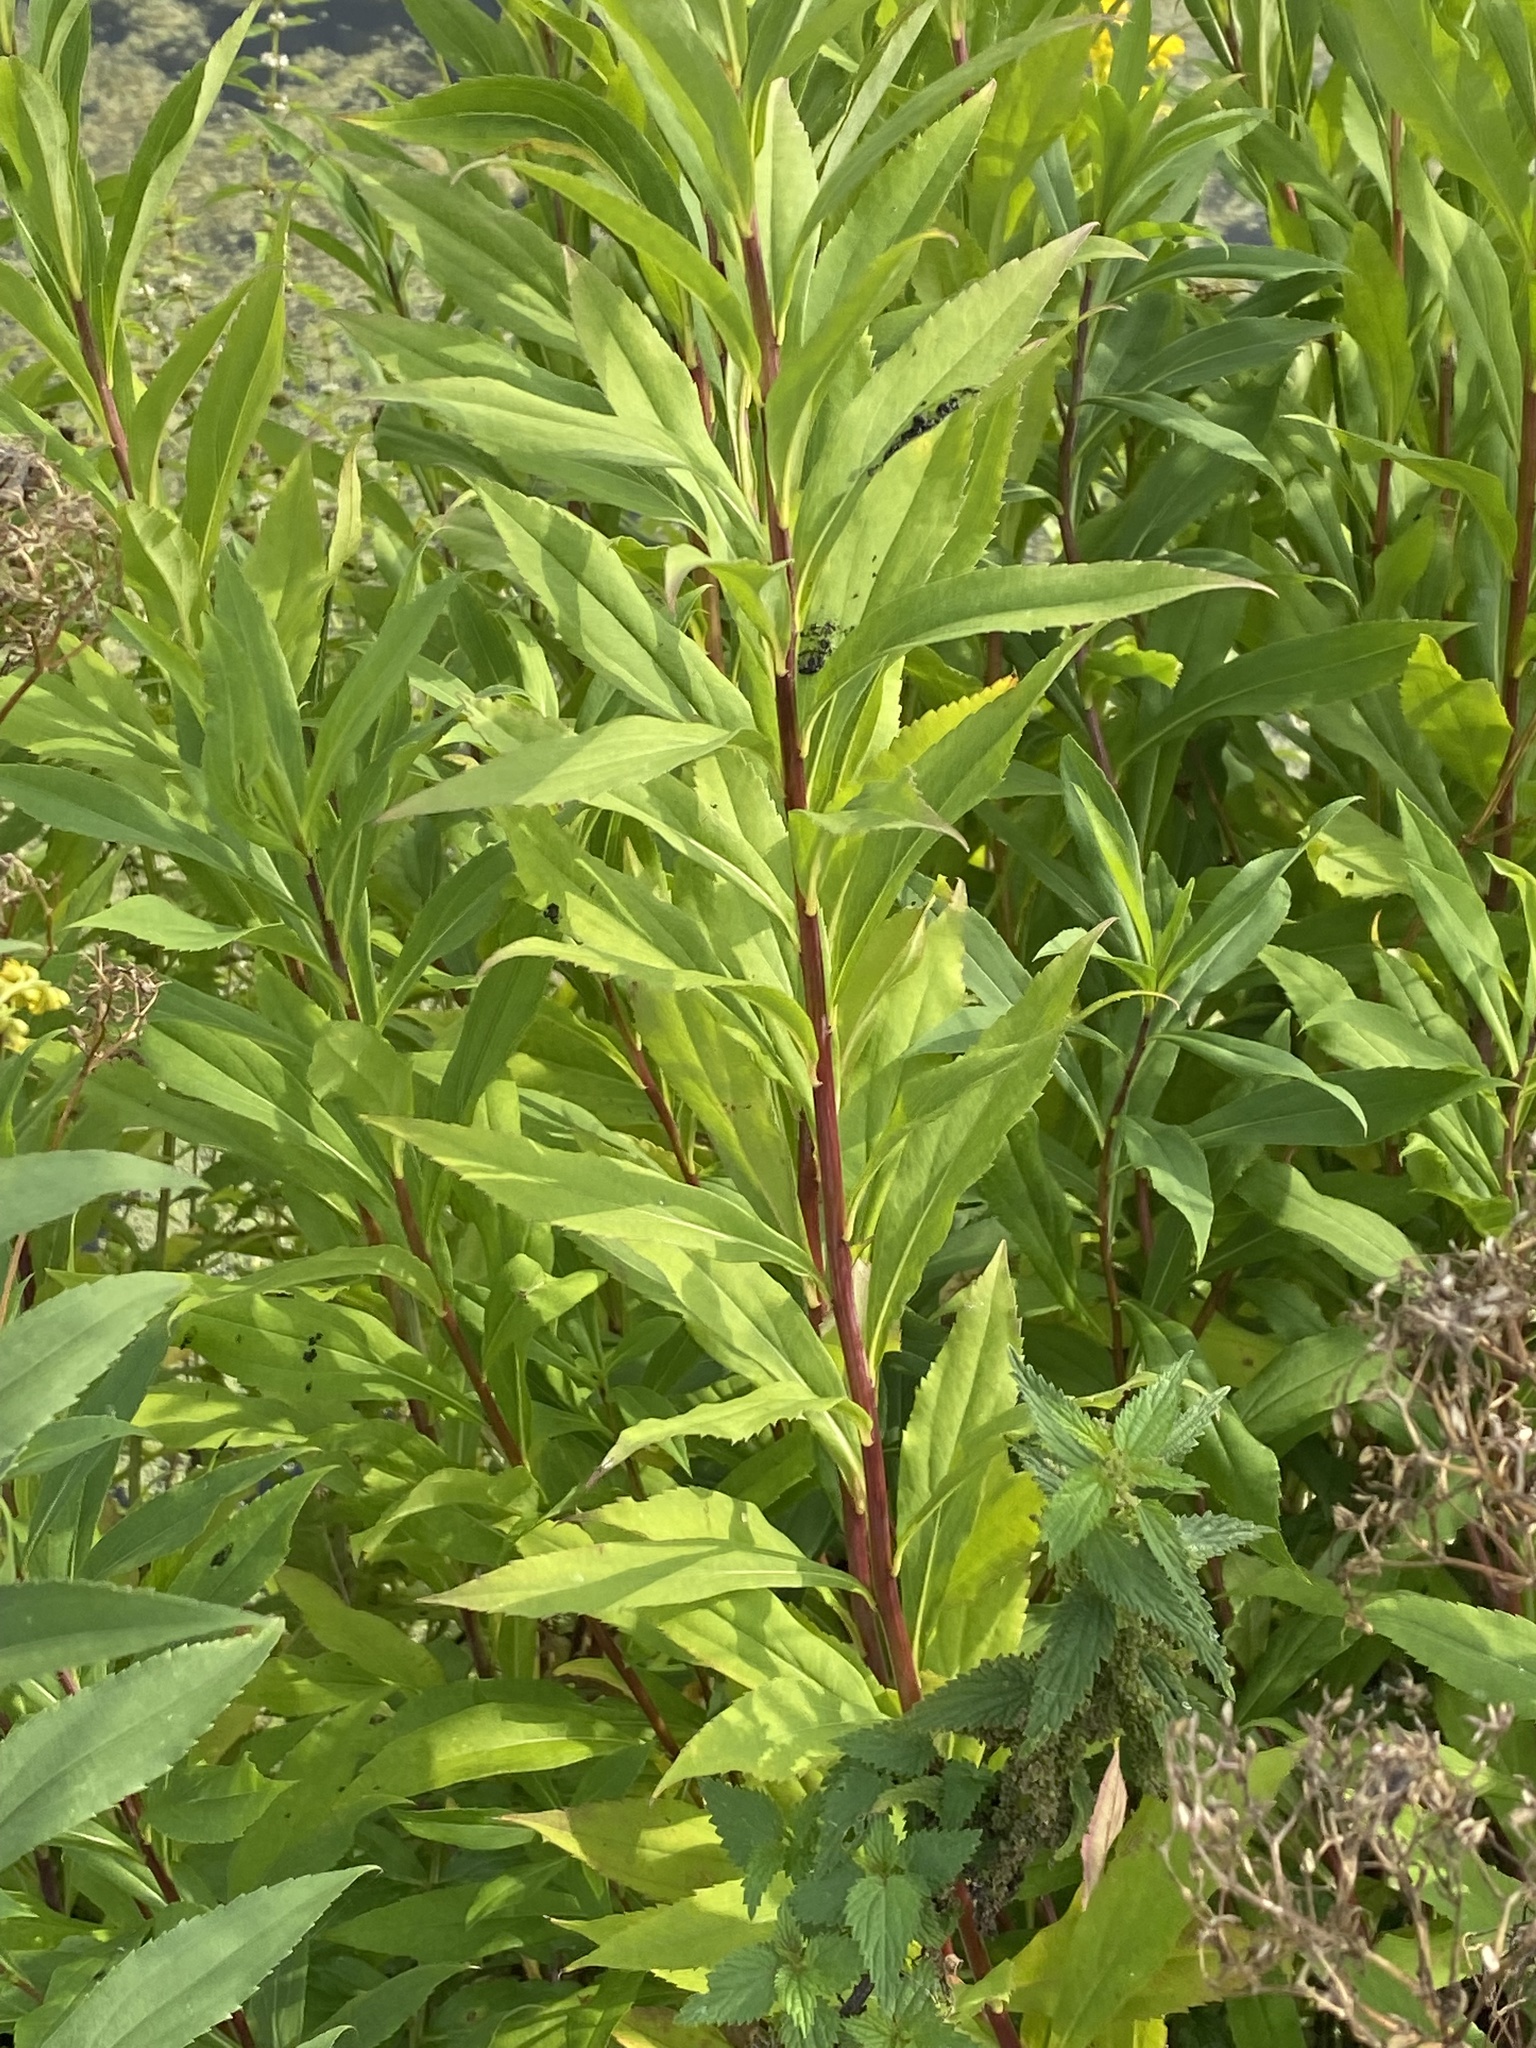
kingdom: Plantae
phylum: Tracheophyta
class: Magnoliopsida
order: Asterales
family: Asteraceae
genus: Solidago
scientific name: Solidago gigantea
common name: Giant goldenrod
